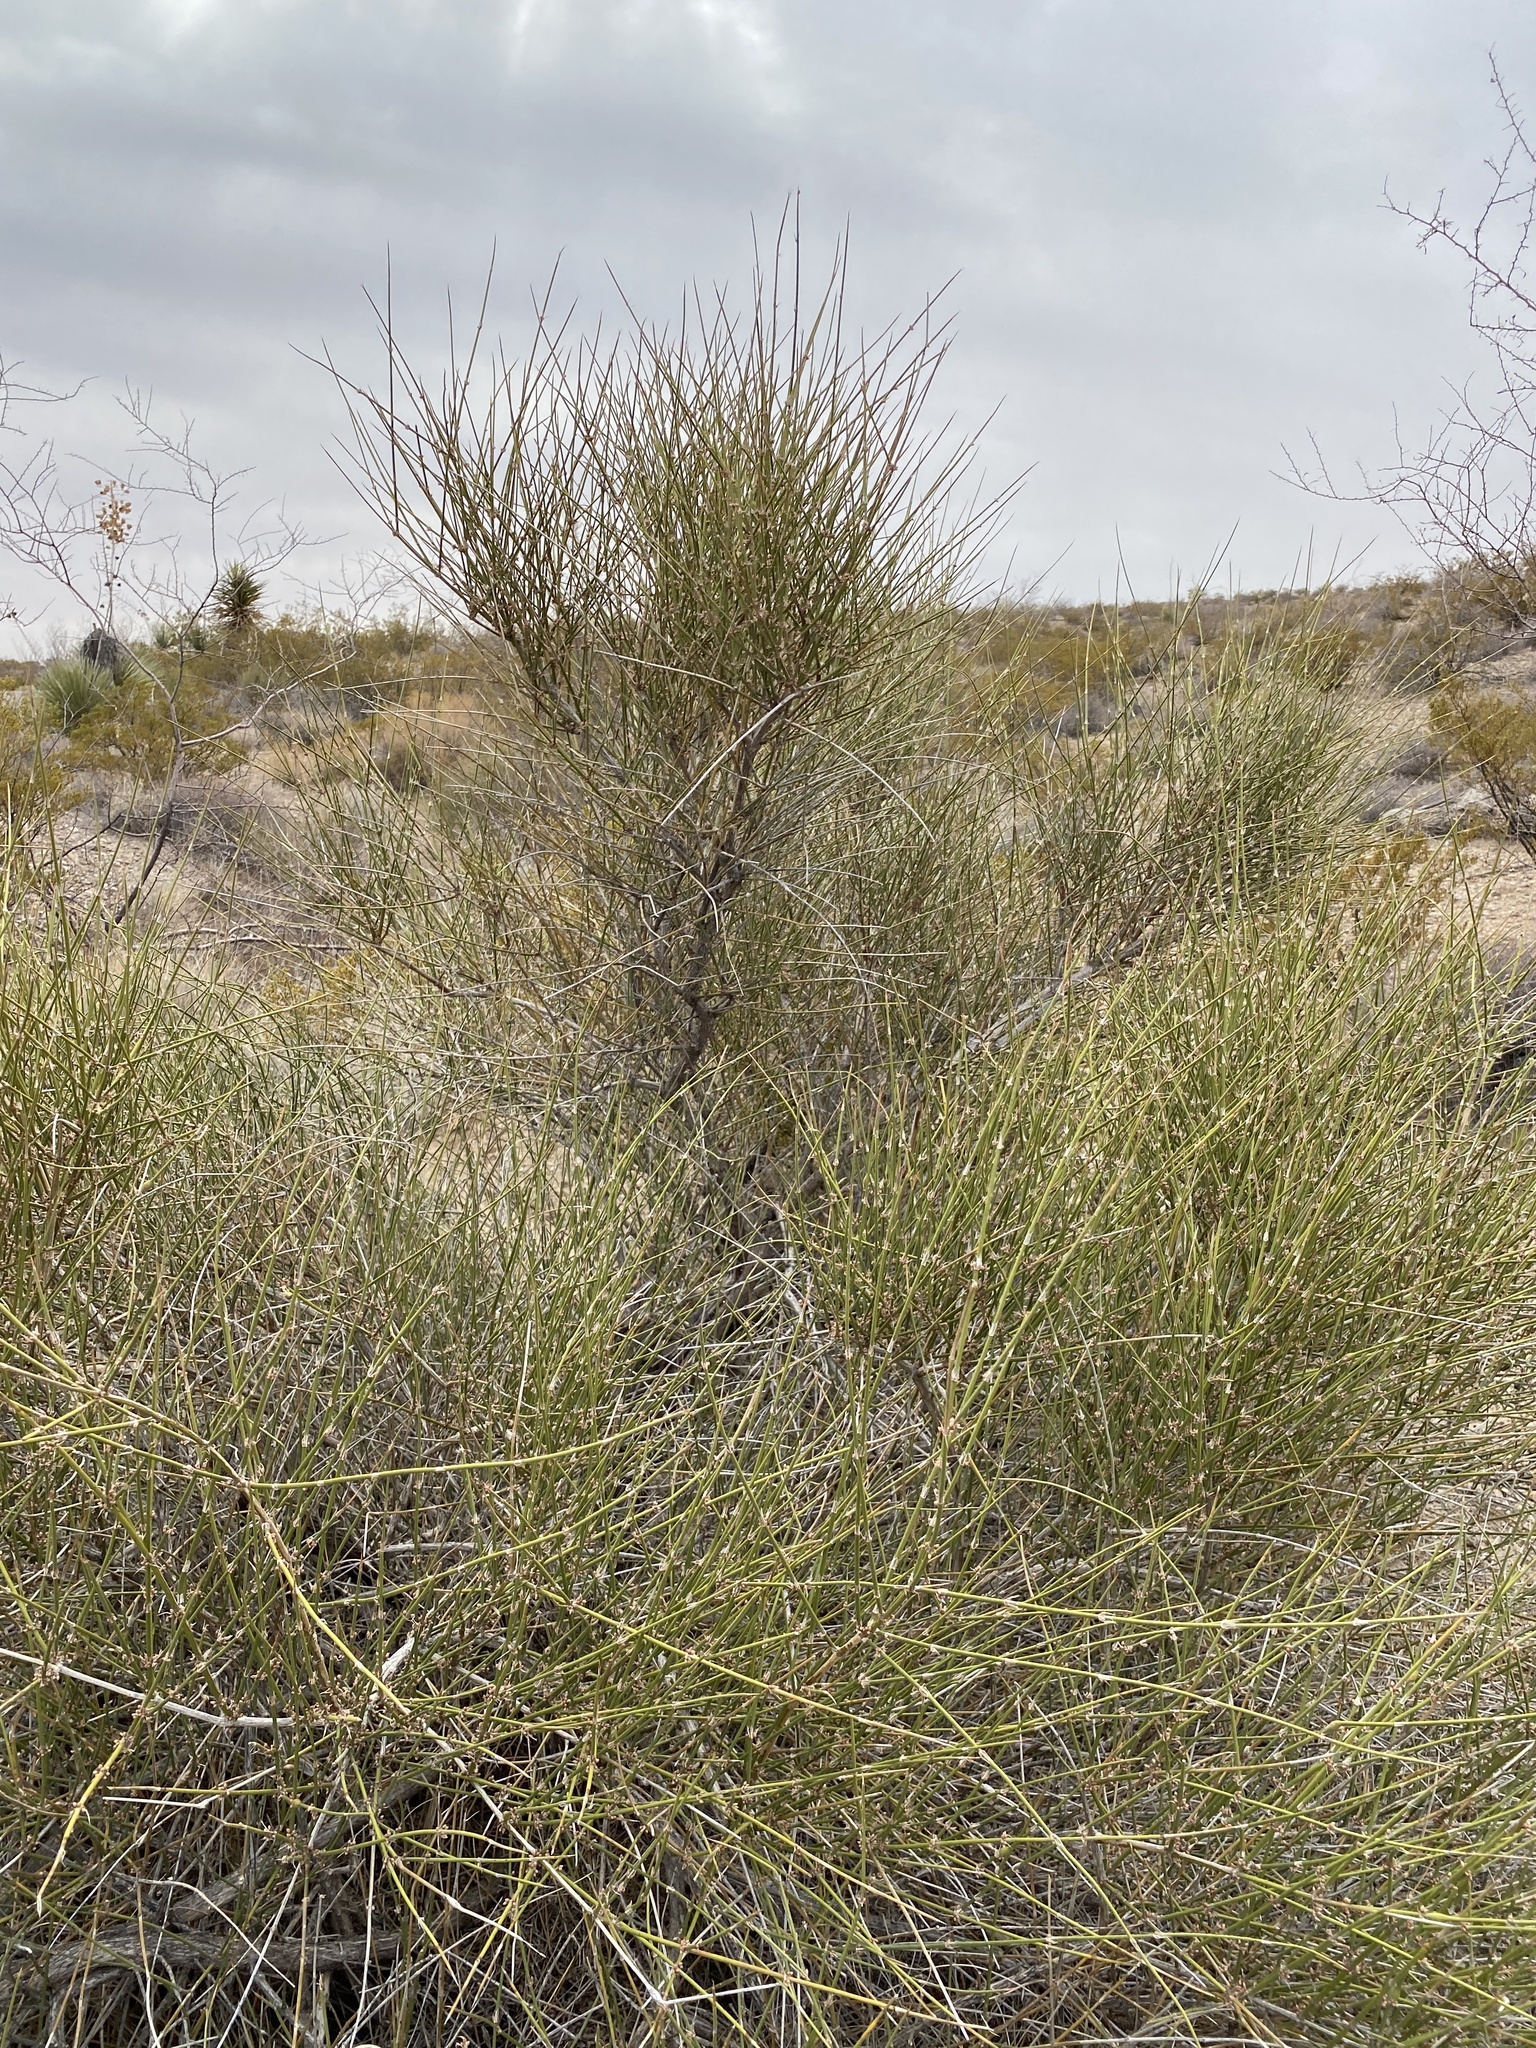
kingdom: Plantae
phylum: Tracheophyta
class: Gnetopsida
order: Ephedrales
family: Ephedraceae
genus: Ephedra
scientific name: Ephedra trifurca
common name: Mexican-tea
